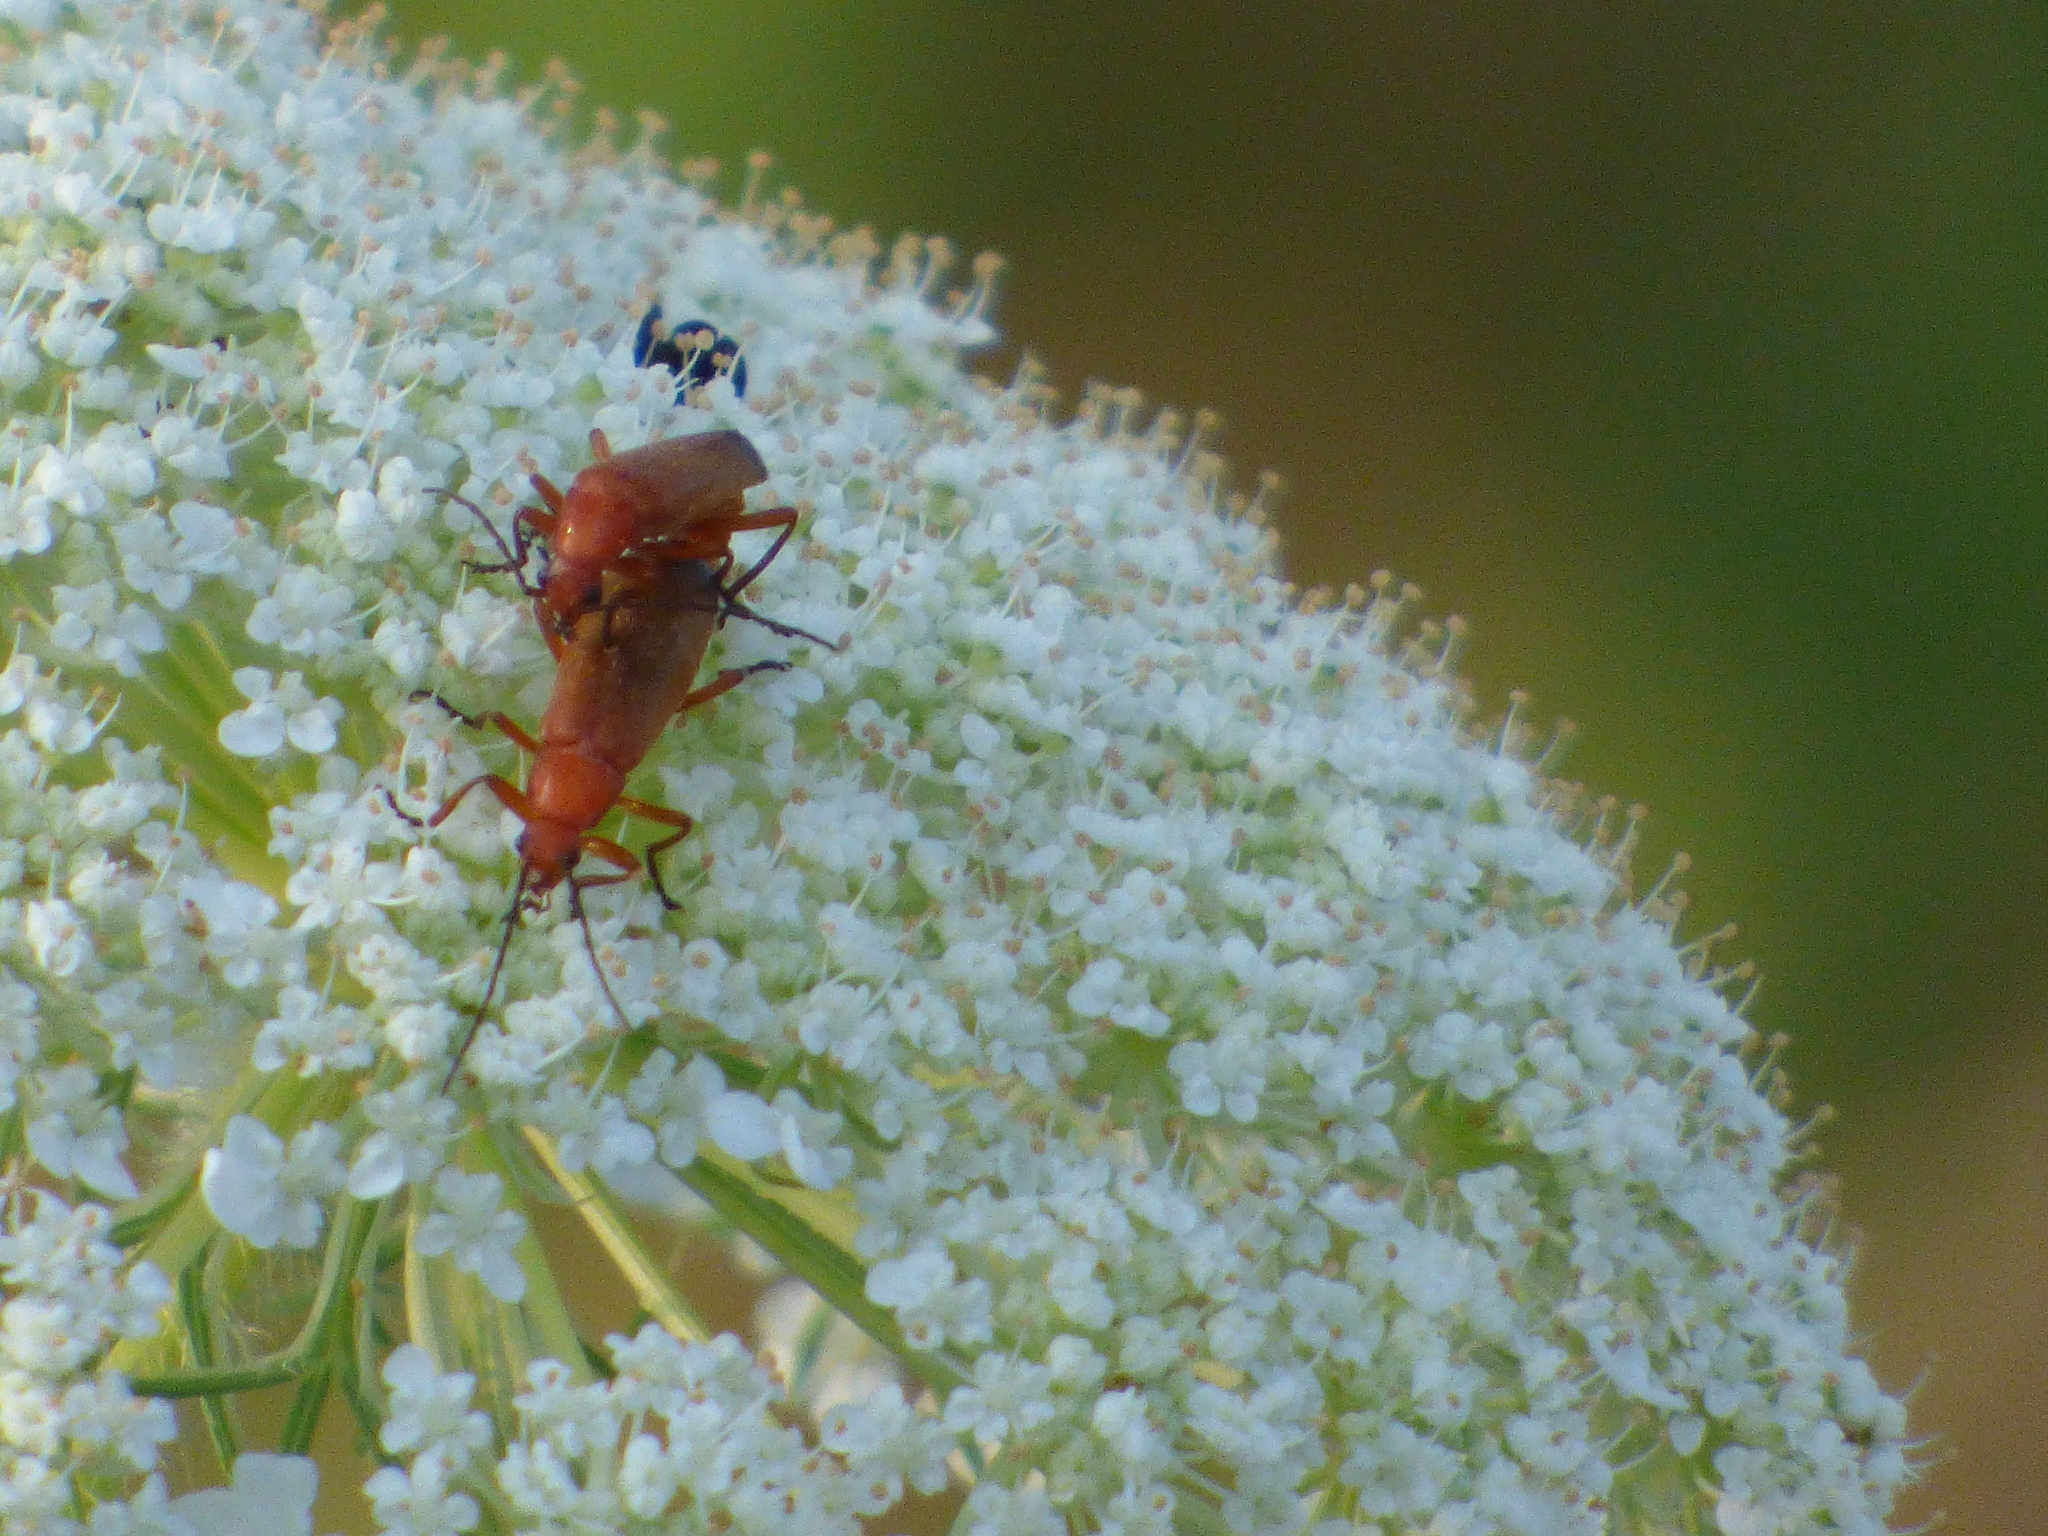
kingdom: Animalia
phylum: Arthropoda
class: Insecta
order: Coleoptera
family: Cantharidae
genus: Rhagonycha
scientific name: Rhagonycha fulva
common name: Common red soldier beetle
